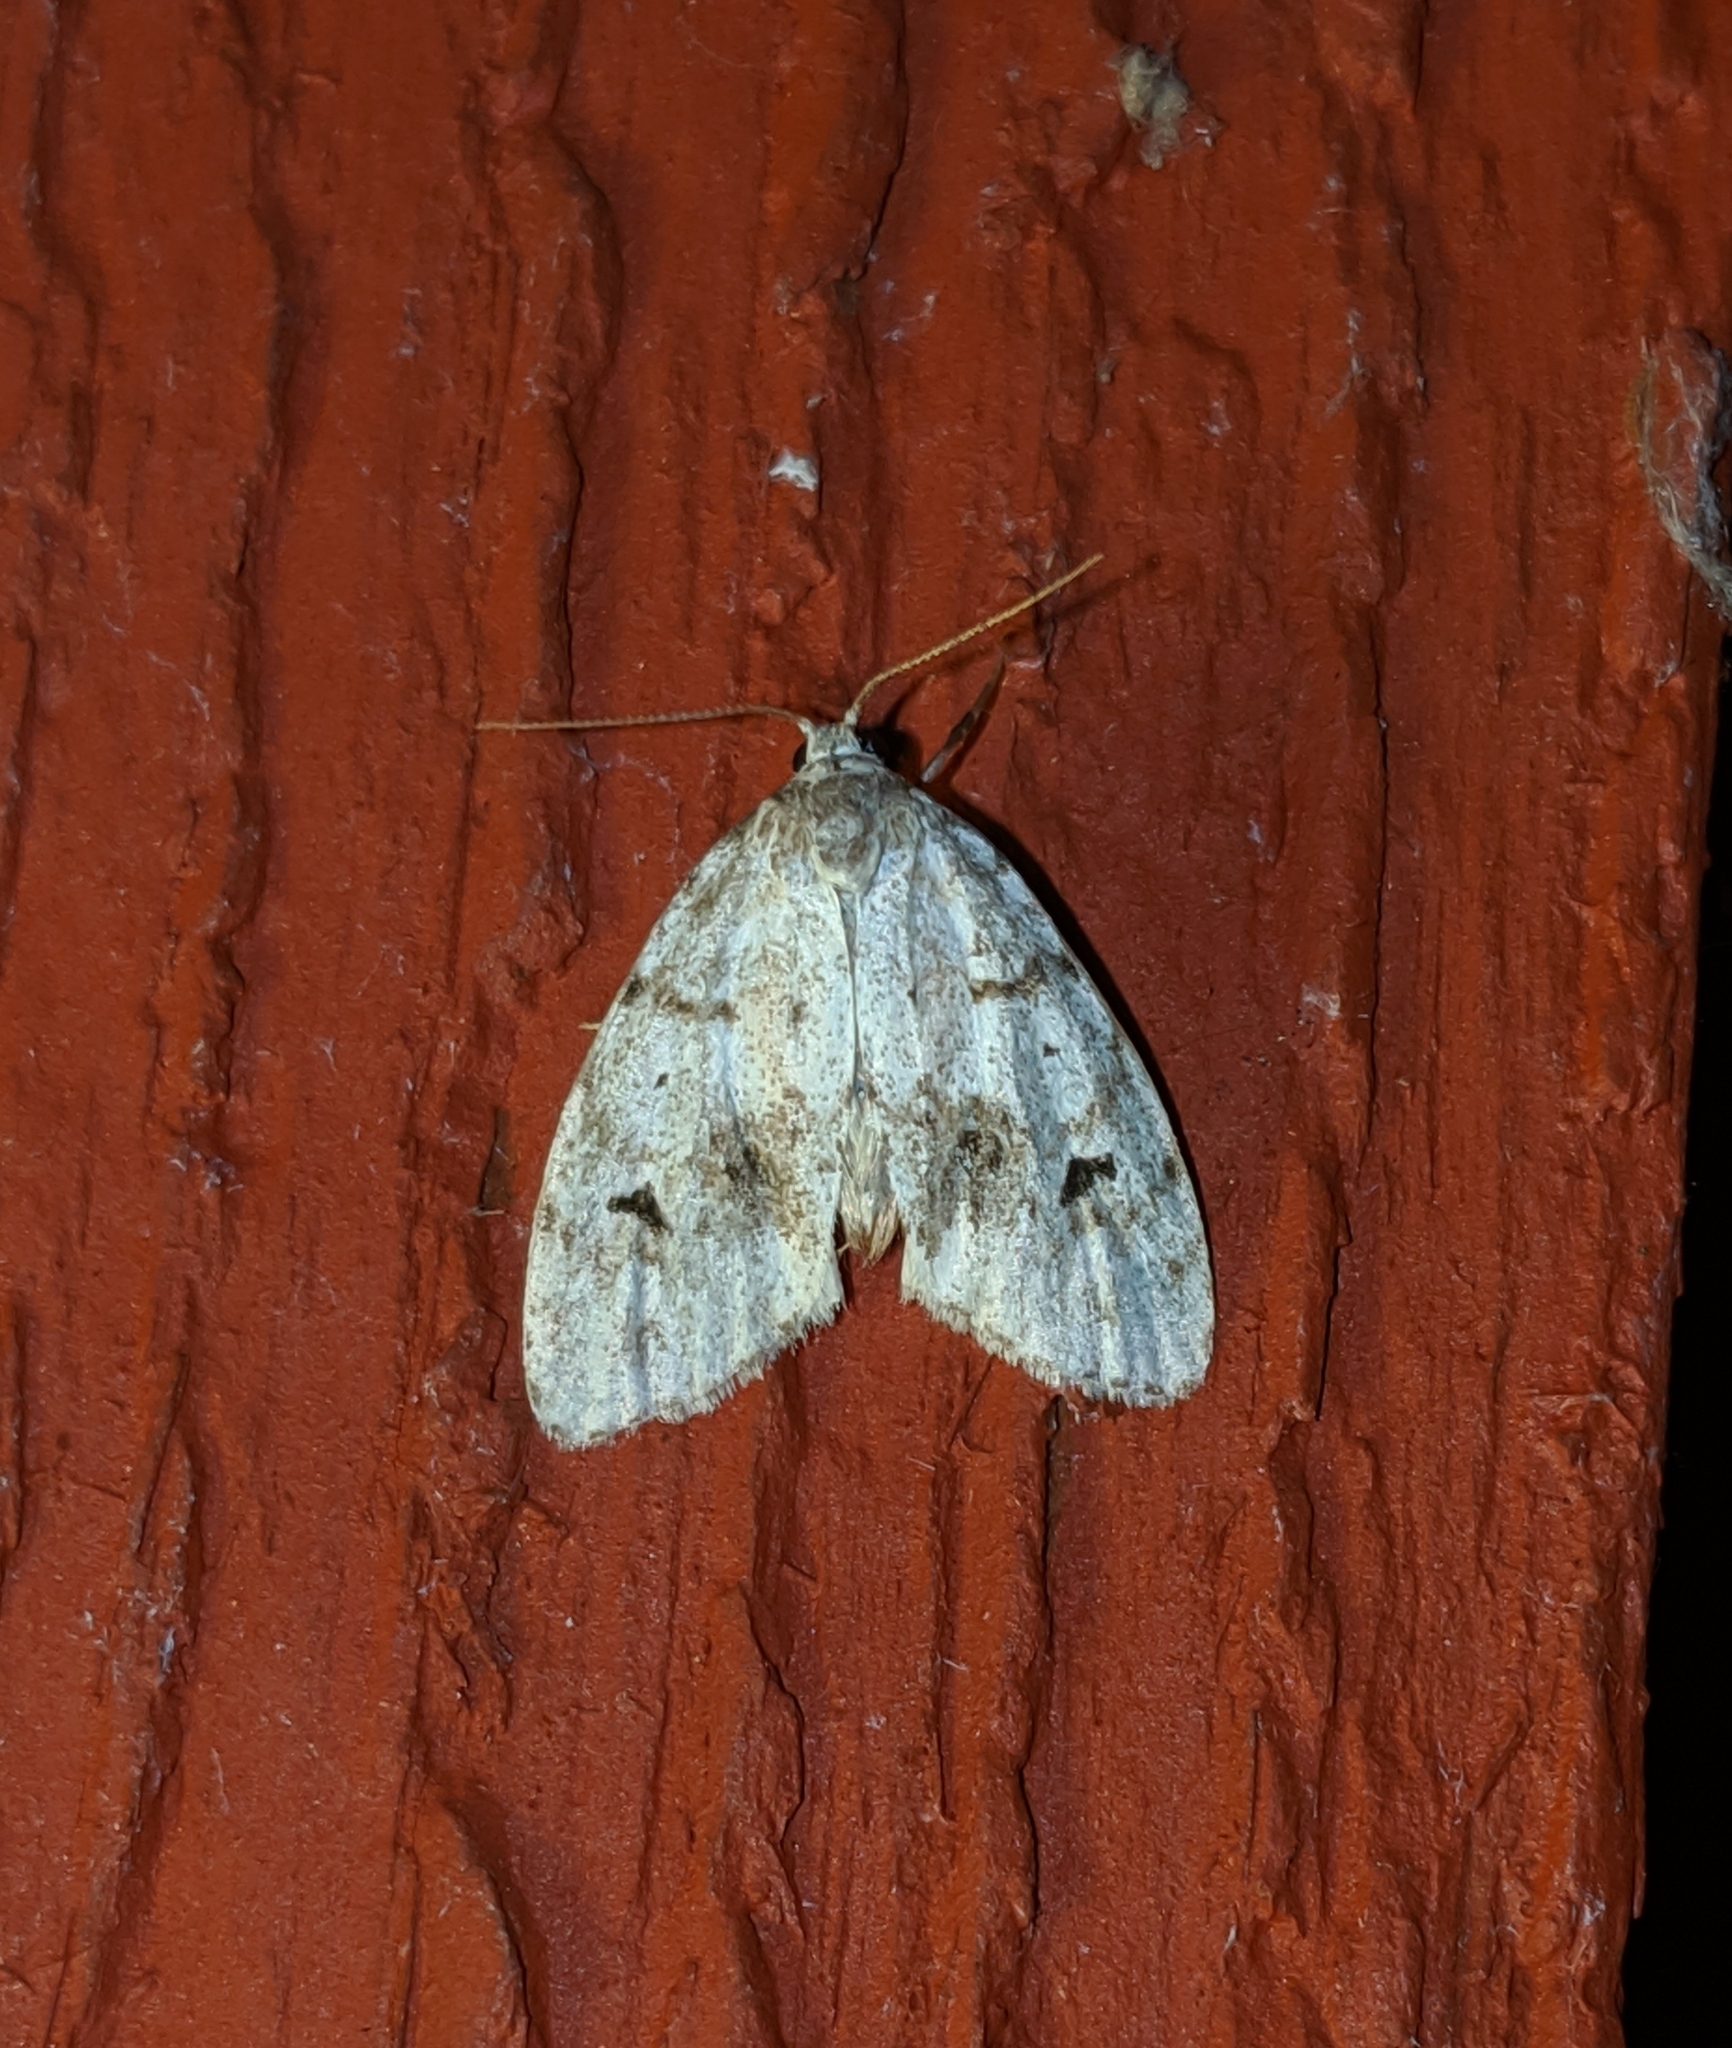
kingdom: Animalia
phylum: Arthropoda
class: Insecta
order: Lepidoptera
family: Erebidae
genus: Clemensia
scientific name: Clemensia umbrata
